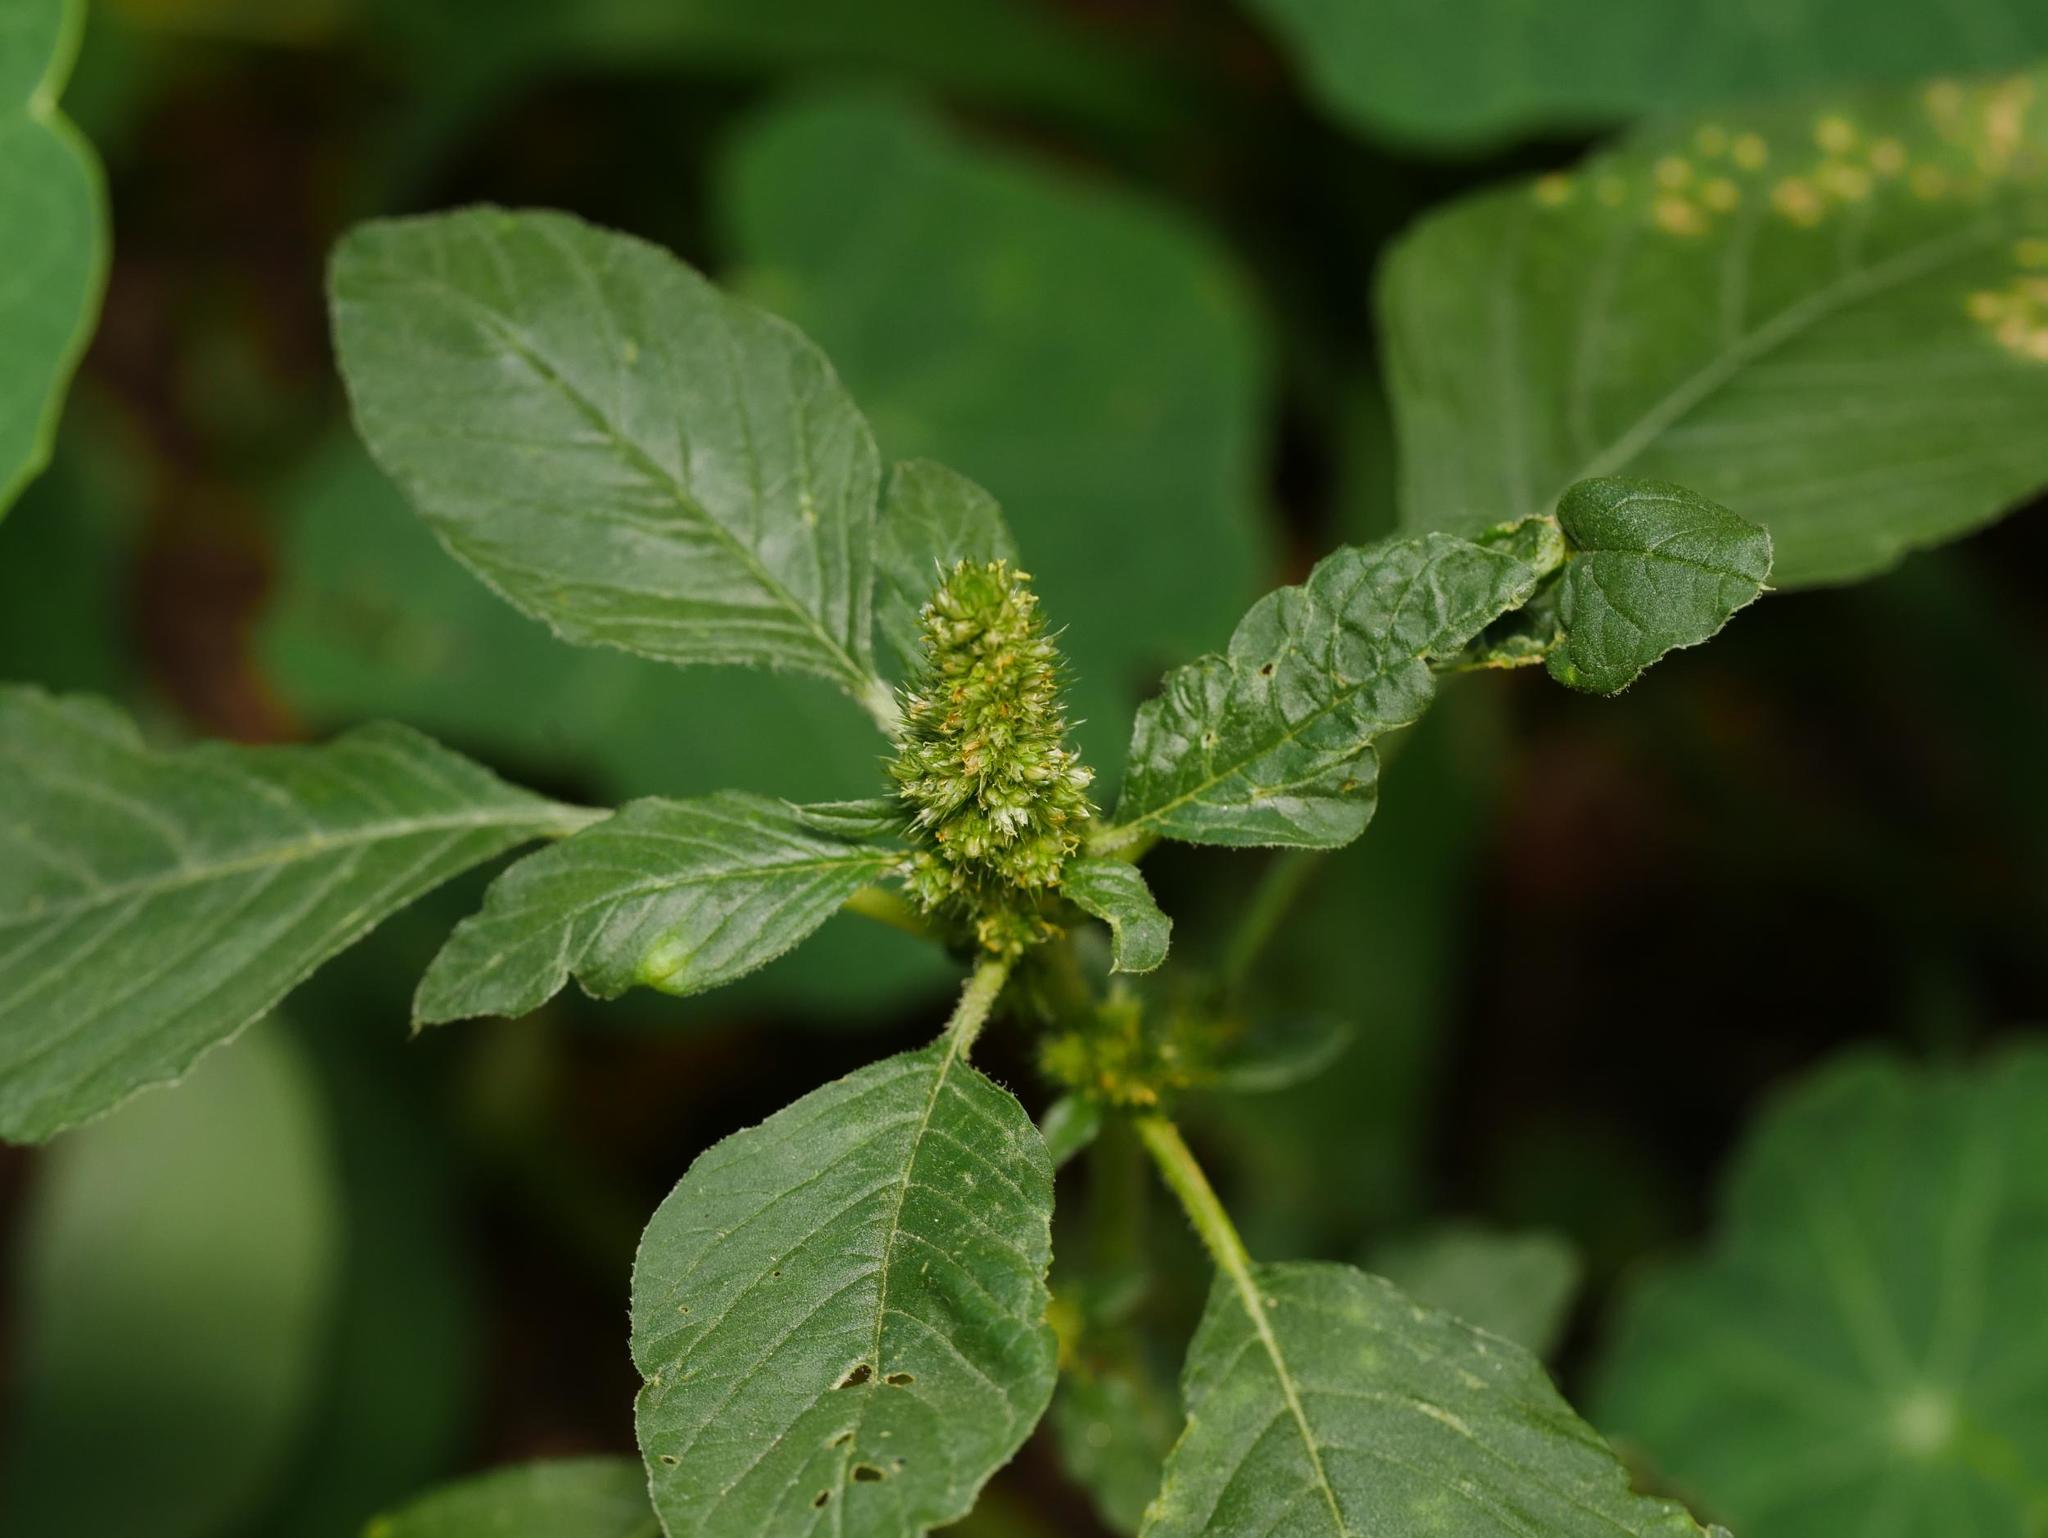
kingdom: Plantae
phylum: Tracheophyta
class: Magnoliopsida
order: Caryophyllales
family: Amaranthaceae
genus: Amaranthus
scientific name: Amaranthus retroflexus
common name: Redroot amaranth
